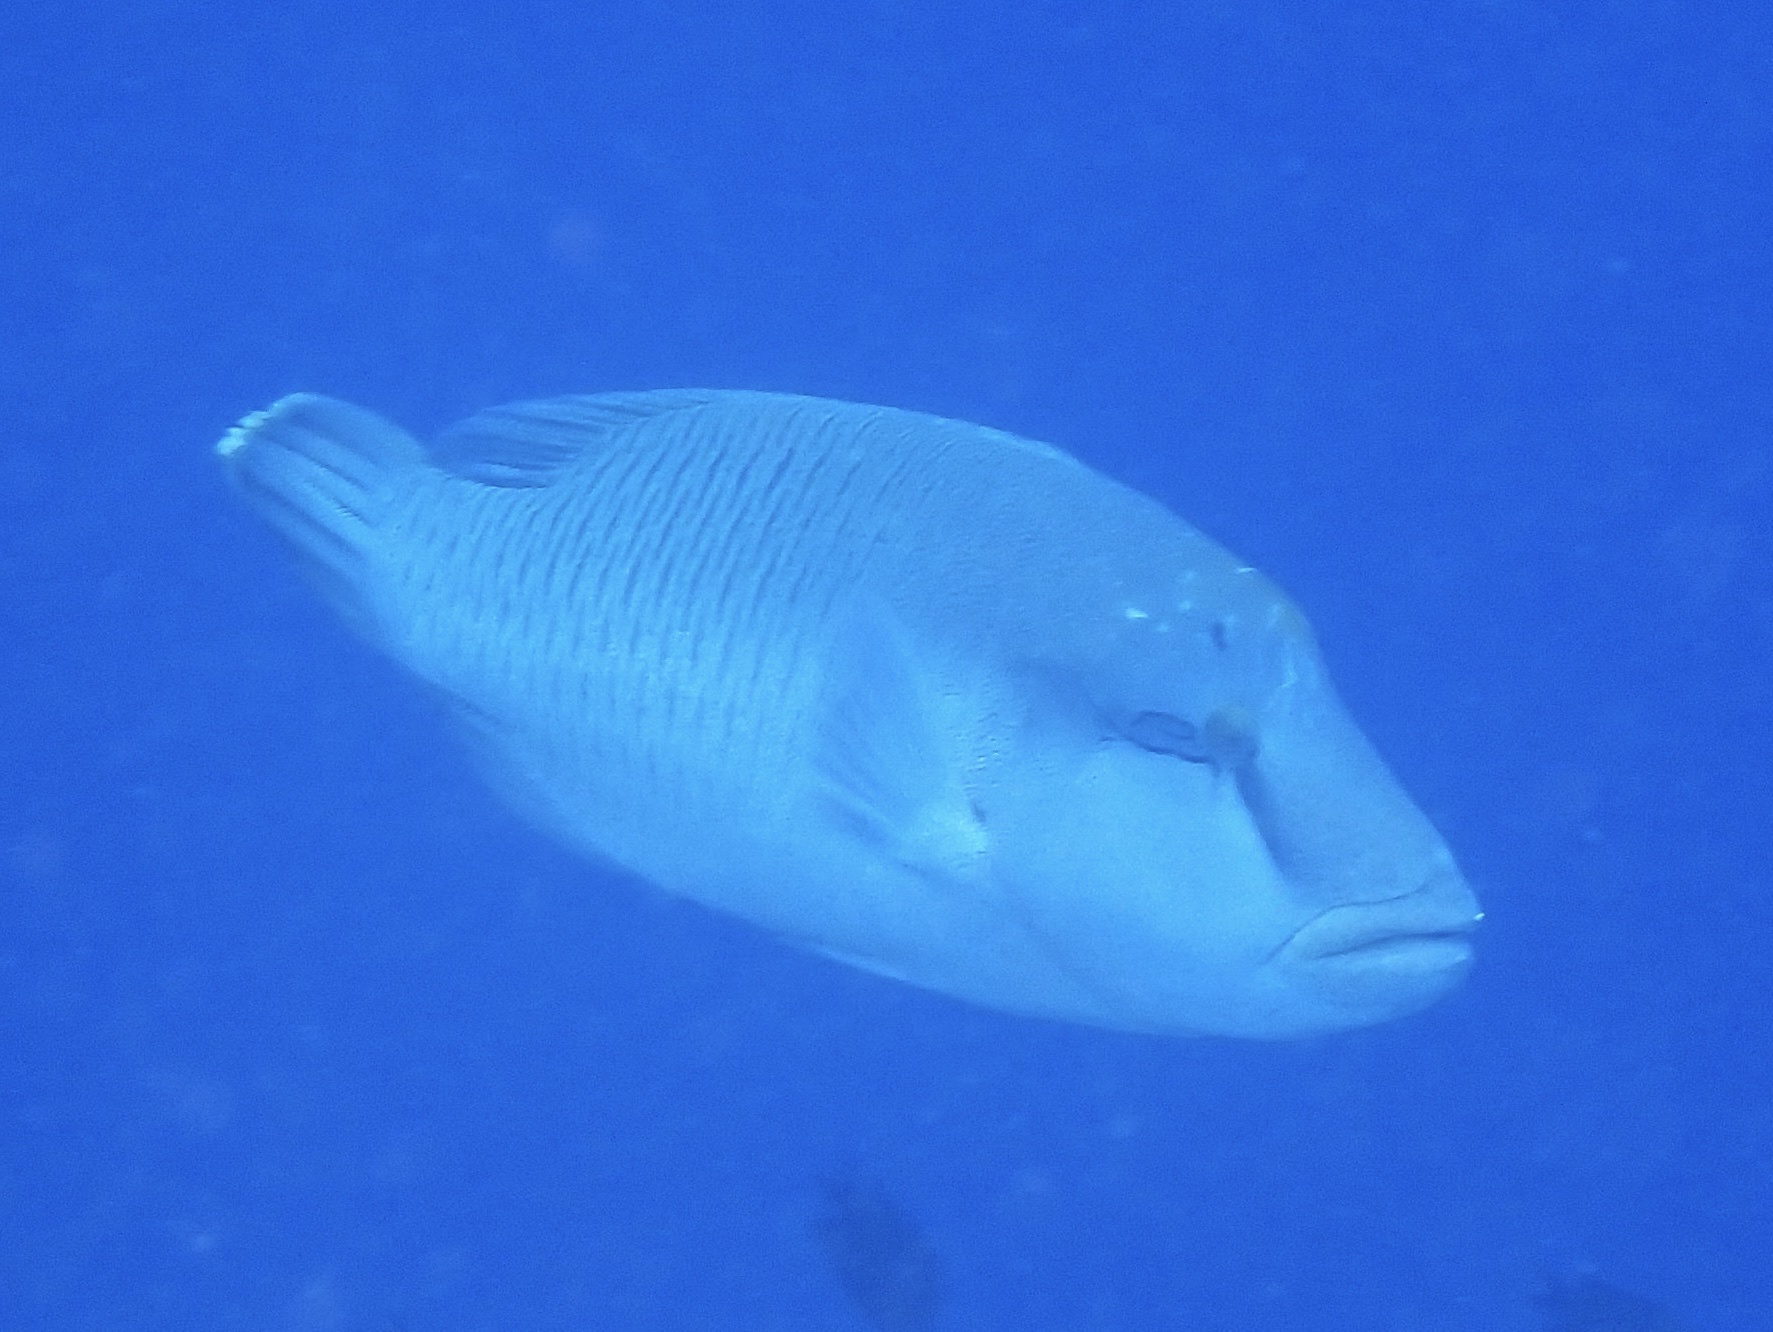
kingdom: Animalia
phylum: Chordata
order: Perciformes
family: Labridae
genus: Cheilinus
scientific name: Cheilinus undulatus
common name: Humphead wrasse
